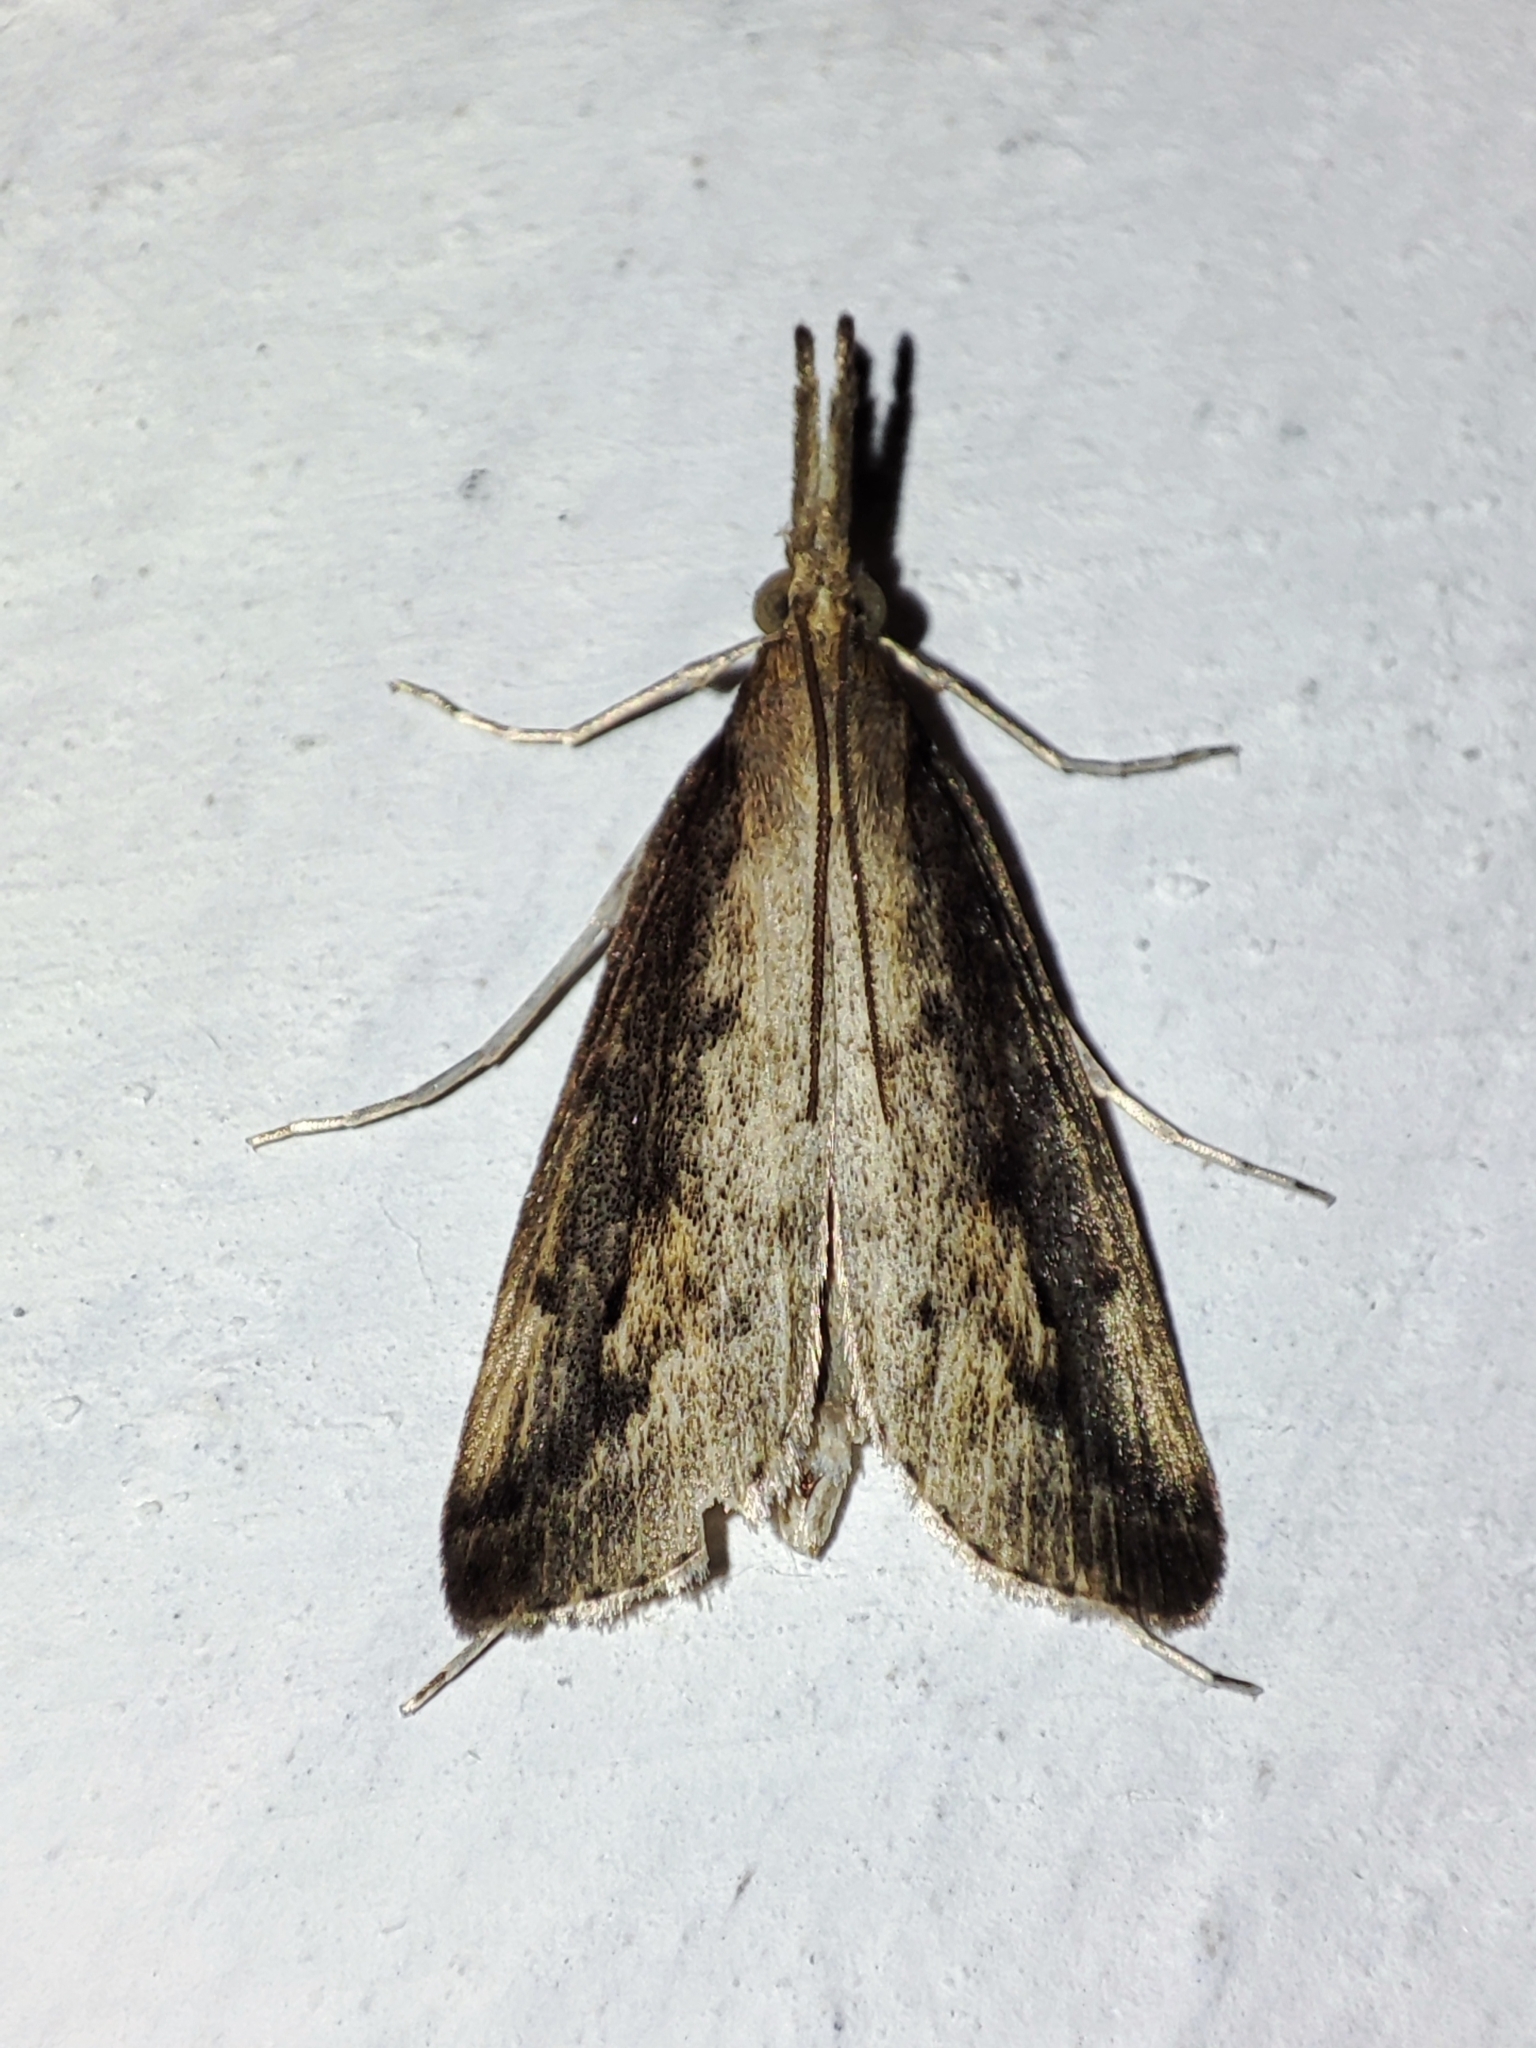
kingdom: Animalia
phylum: Arthropoda
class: Insecta
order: Lepidoptera
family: Crambidae
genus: Schoenobius
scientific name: Schoenobius gigantella
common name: Giant water-veneer
